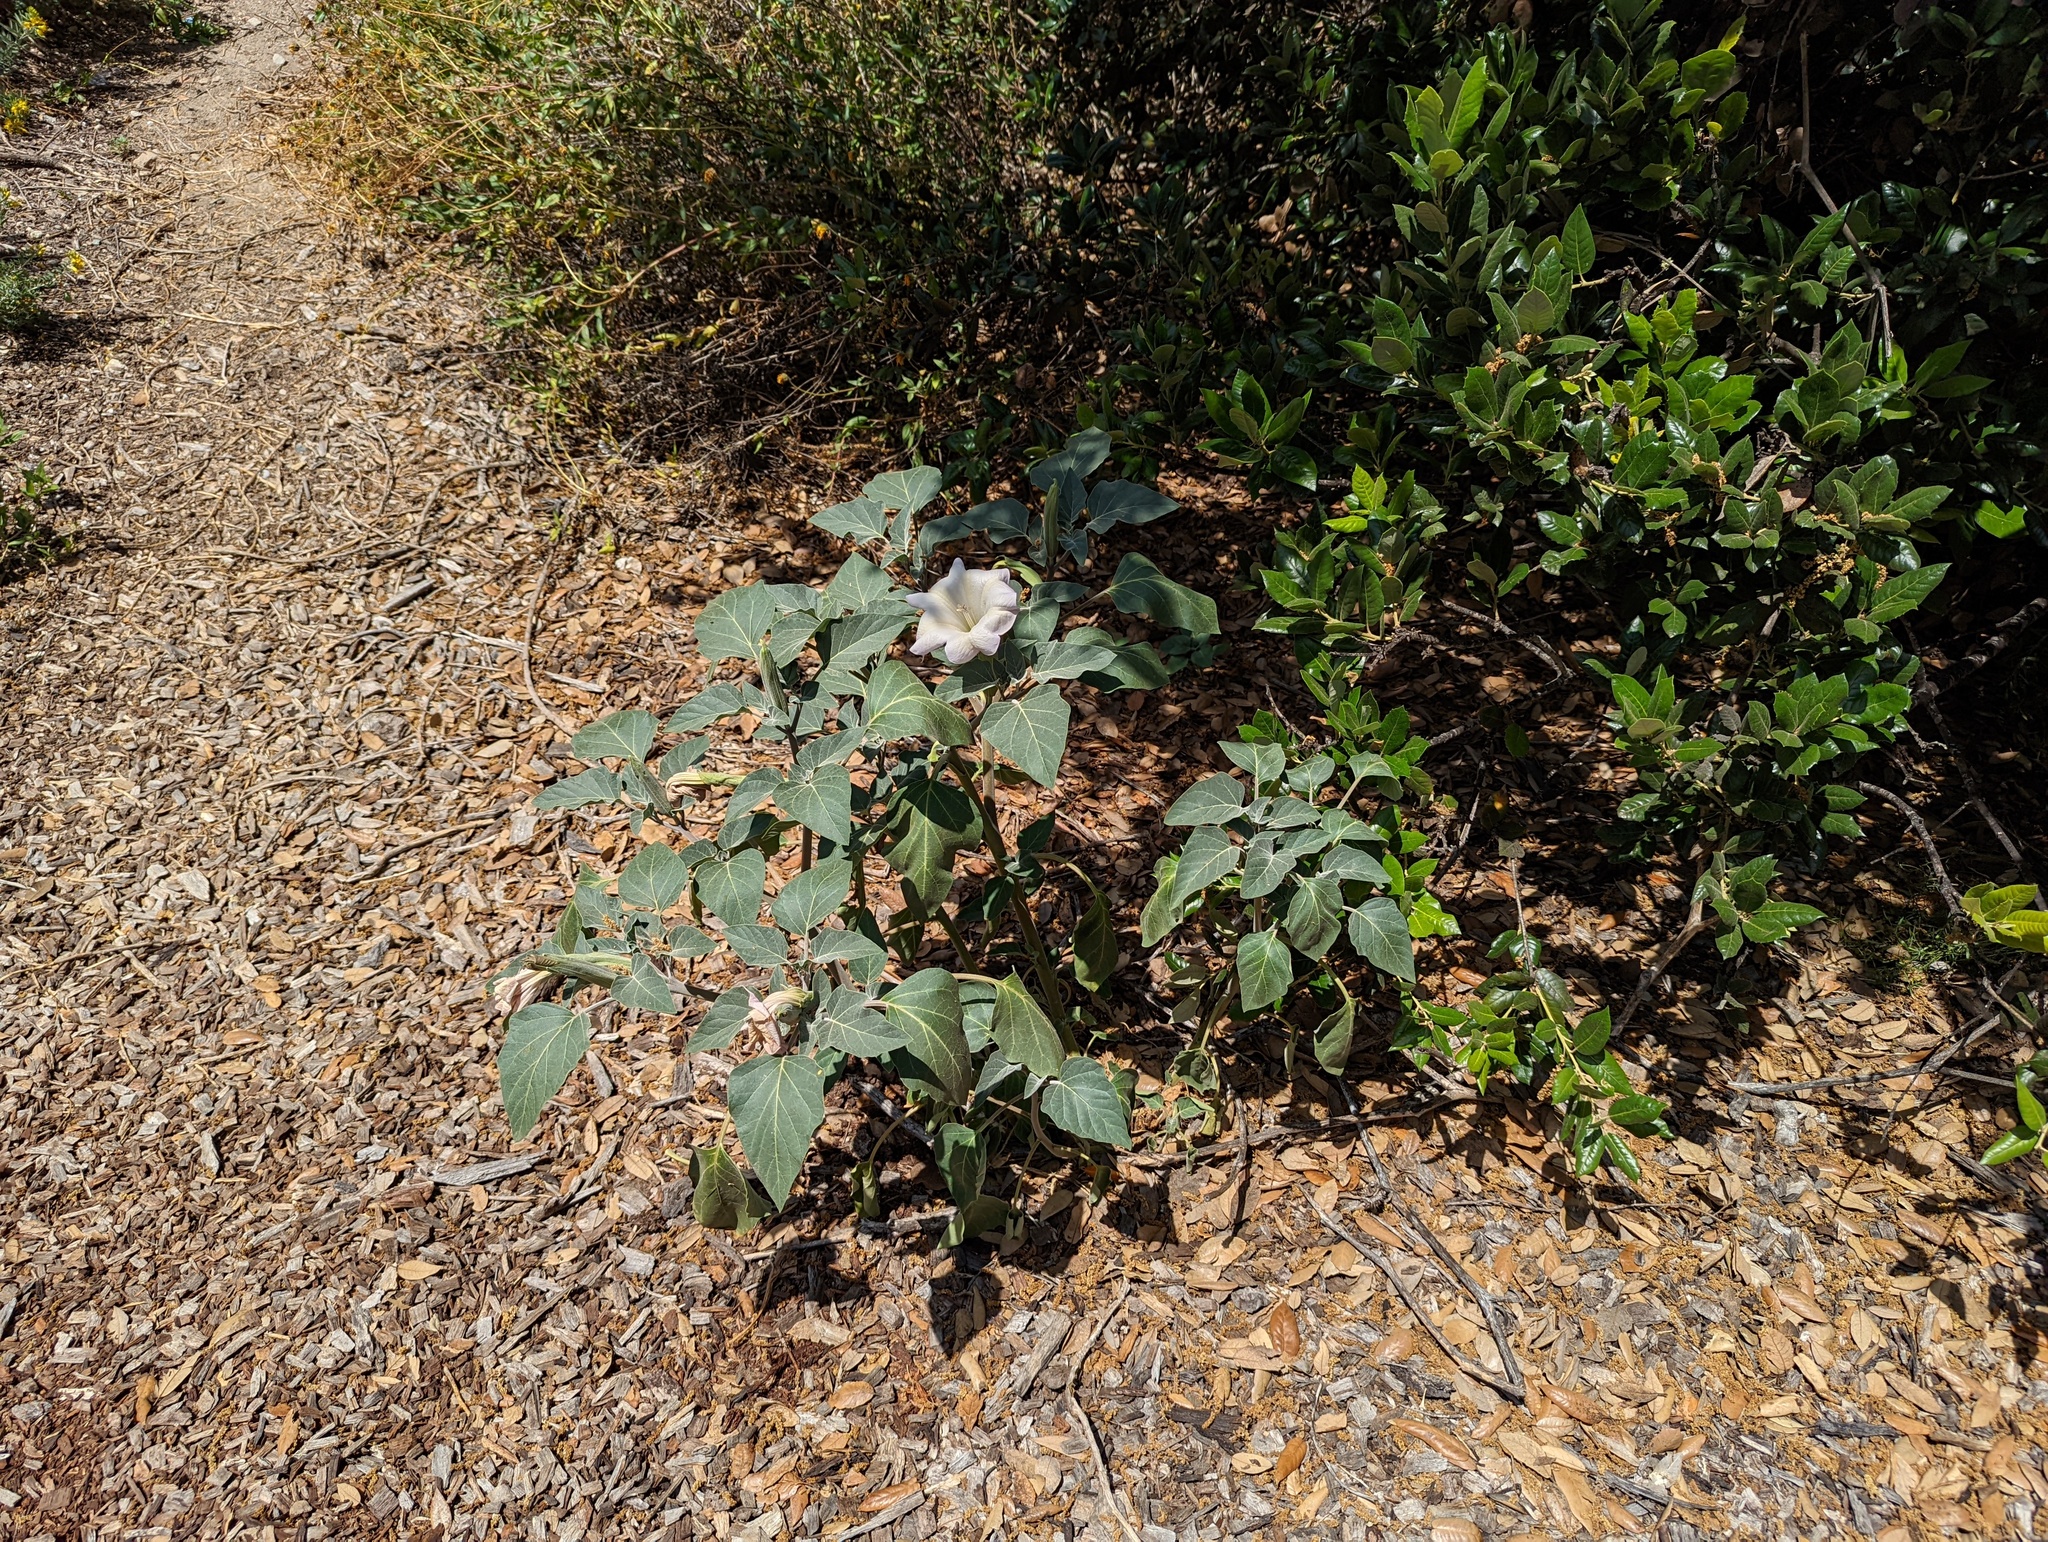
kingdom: Plantae
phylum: Tracheophyta
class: Magnoliopsida
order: Solanales
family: Solanaceae
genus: Datura
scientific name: Datura wrightii
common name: Sacred thorn-apple
